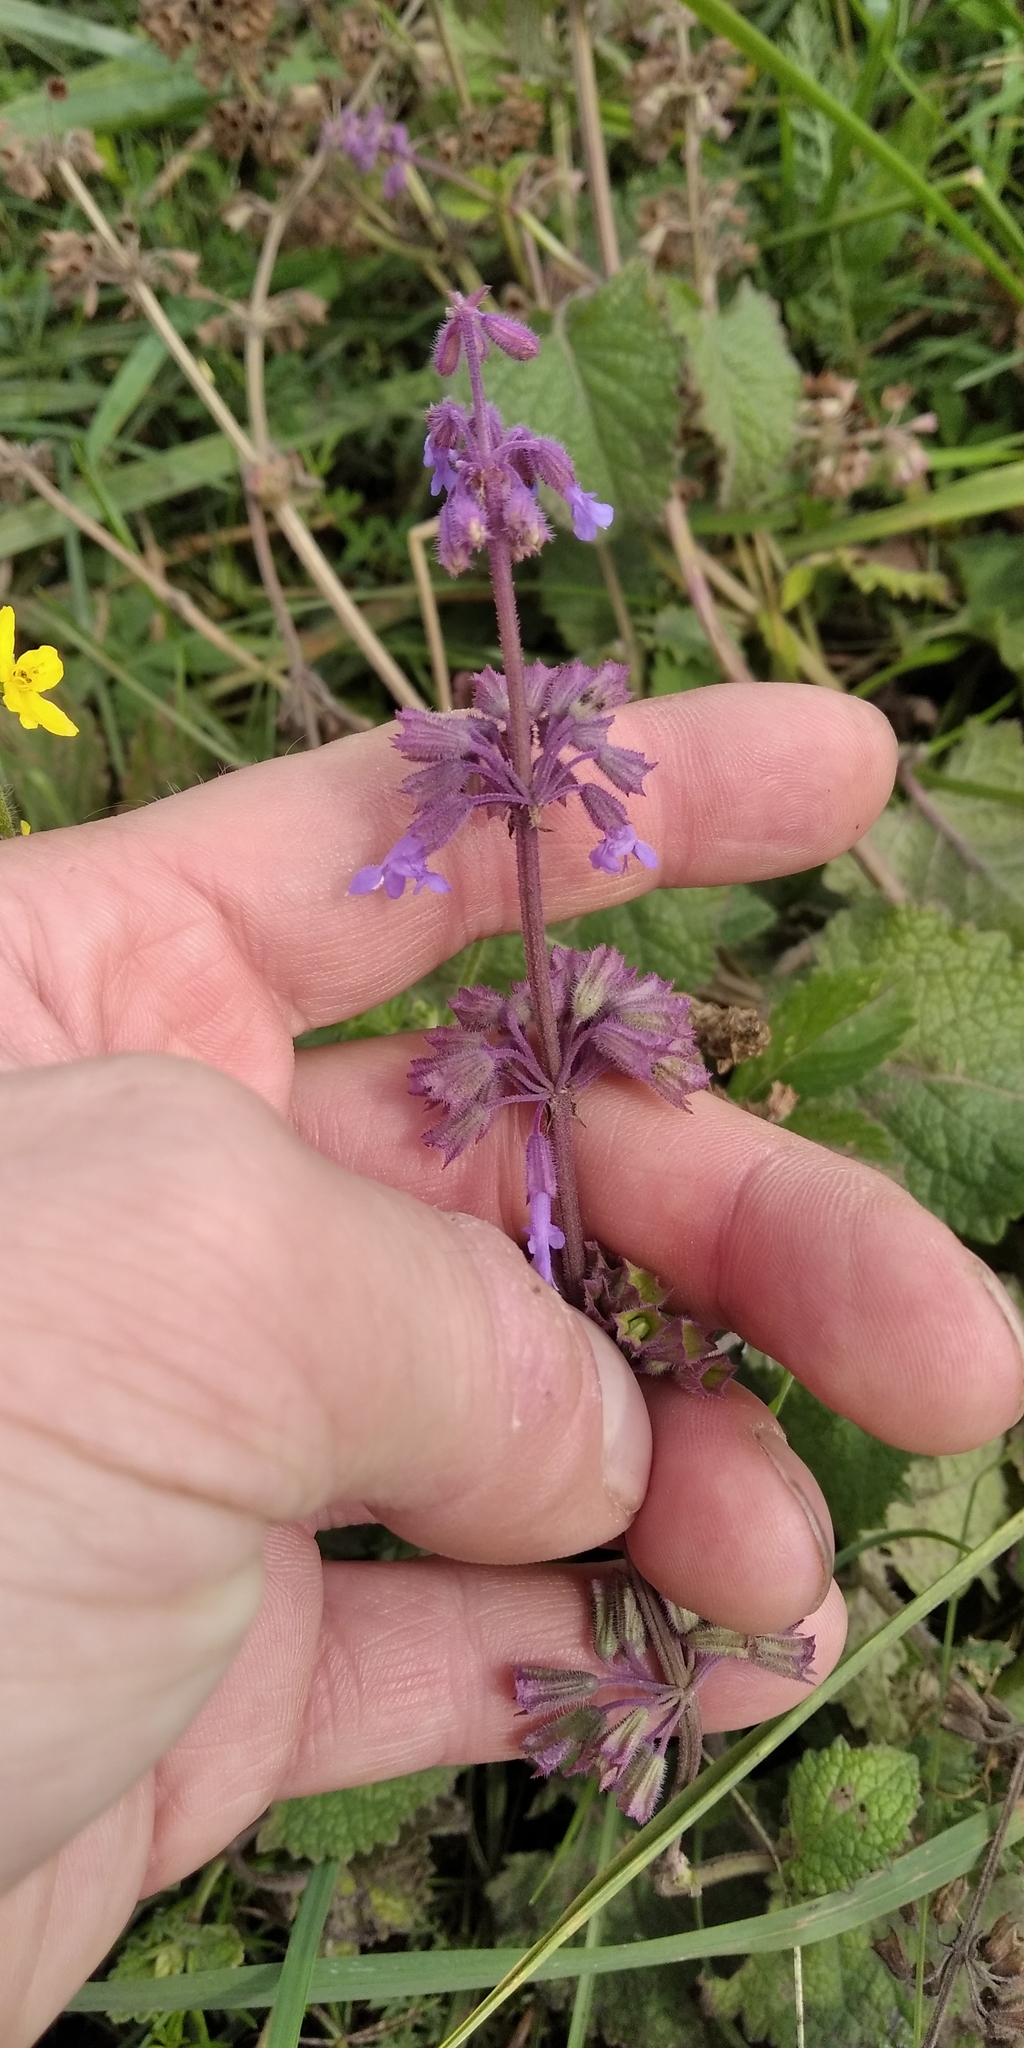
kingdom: Plantae
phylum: Tracheophyta
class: Magnoliopsida
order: Lamiales
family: Lamiaceae
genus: Salvia
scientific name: Salvia verticillata
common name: Whorled clary
